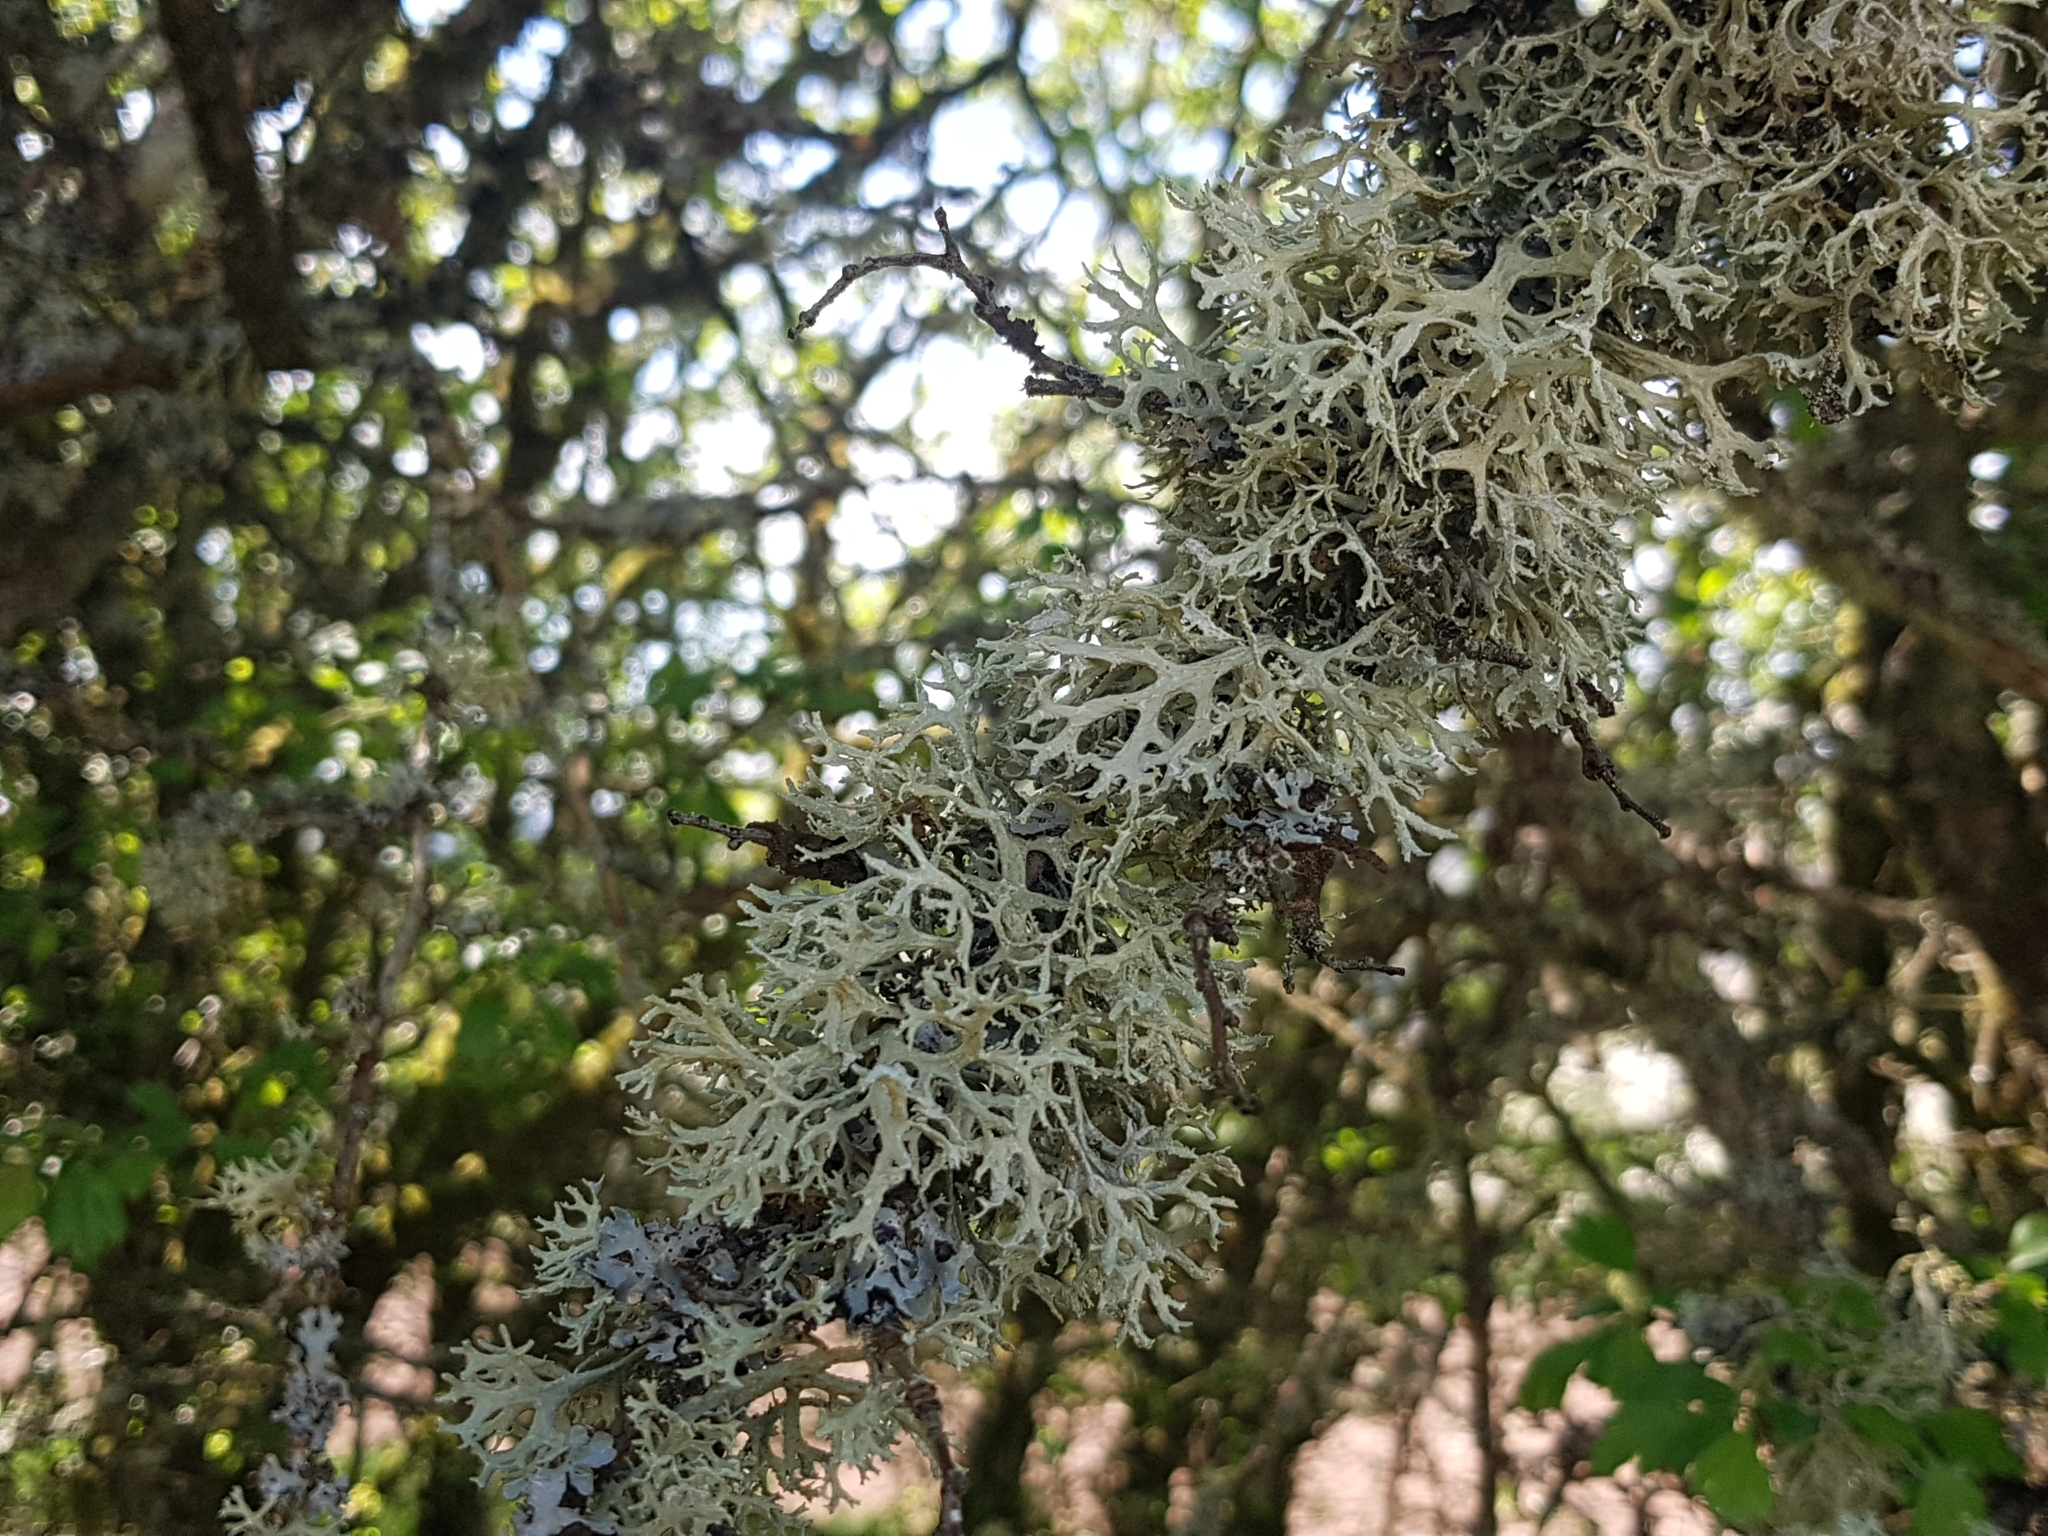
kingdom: Fungi
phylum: Ascomycota
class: Lecanoromycetes
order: Lecanorales
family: Parmeliaceae
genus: Evernia
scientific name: Evernia prunastri
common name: Oak moss
